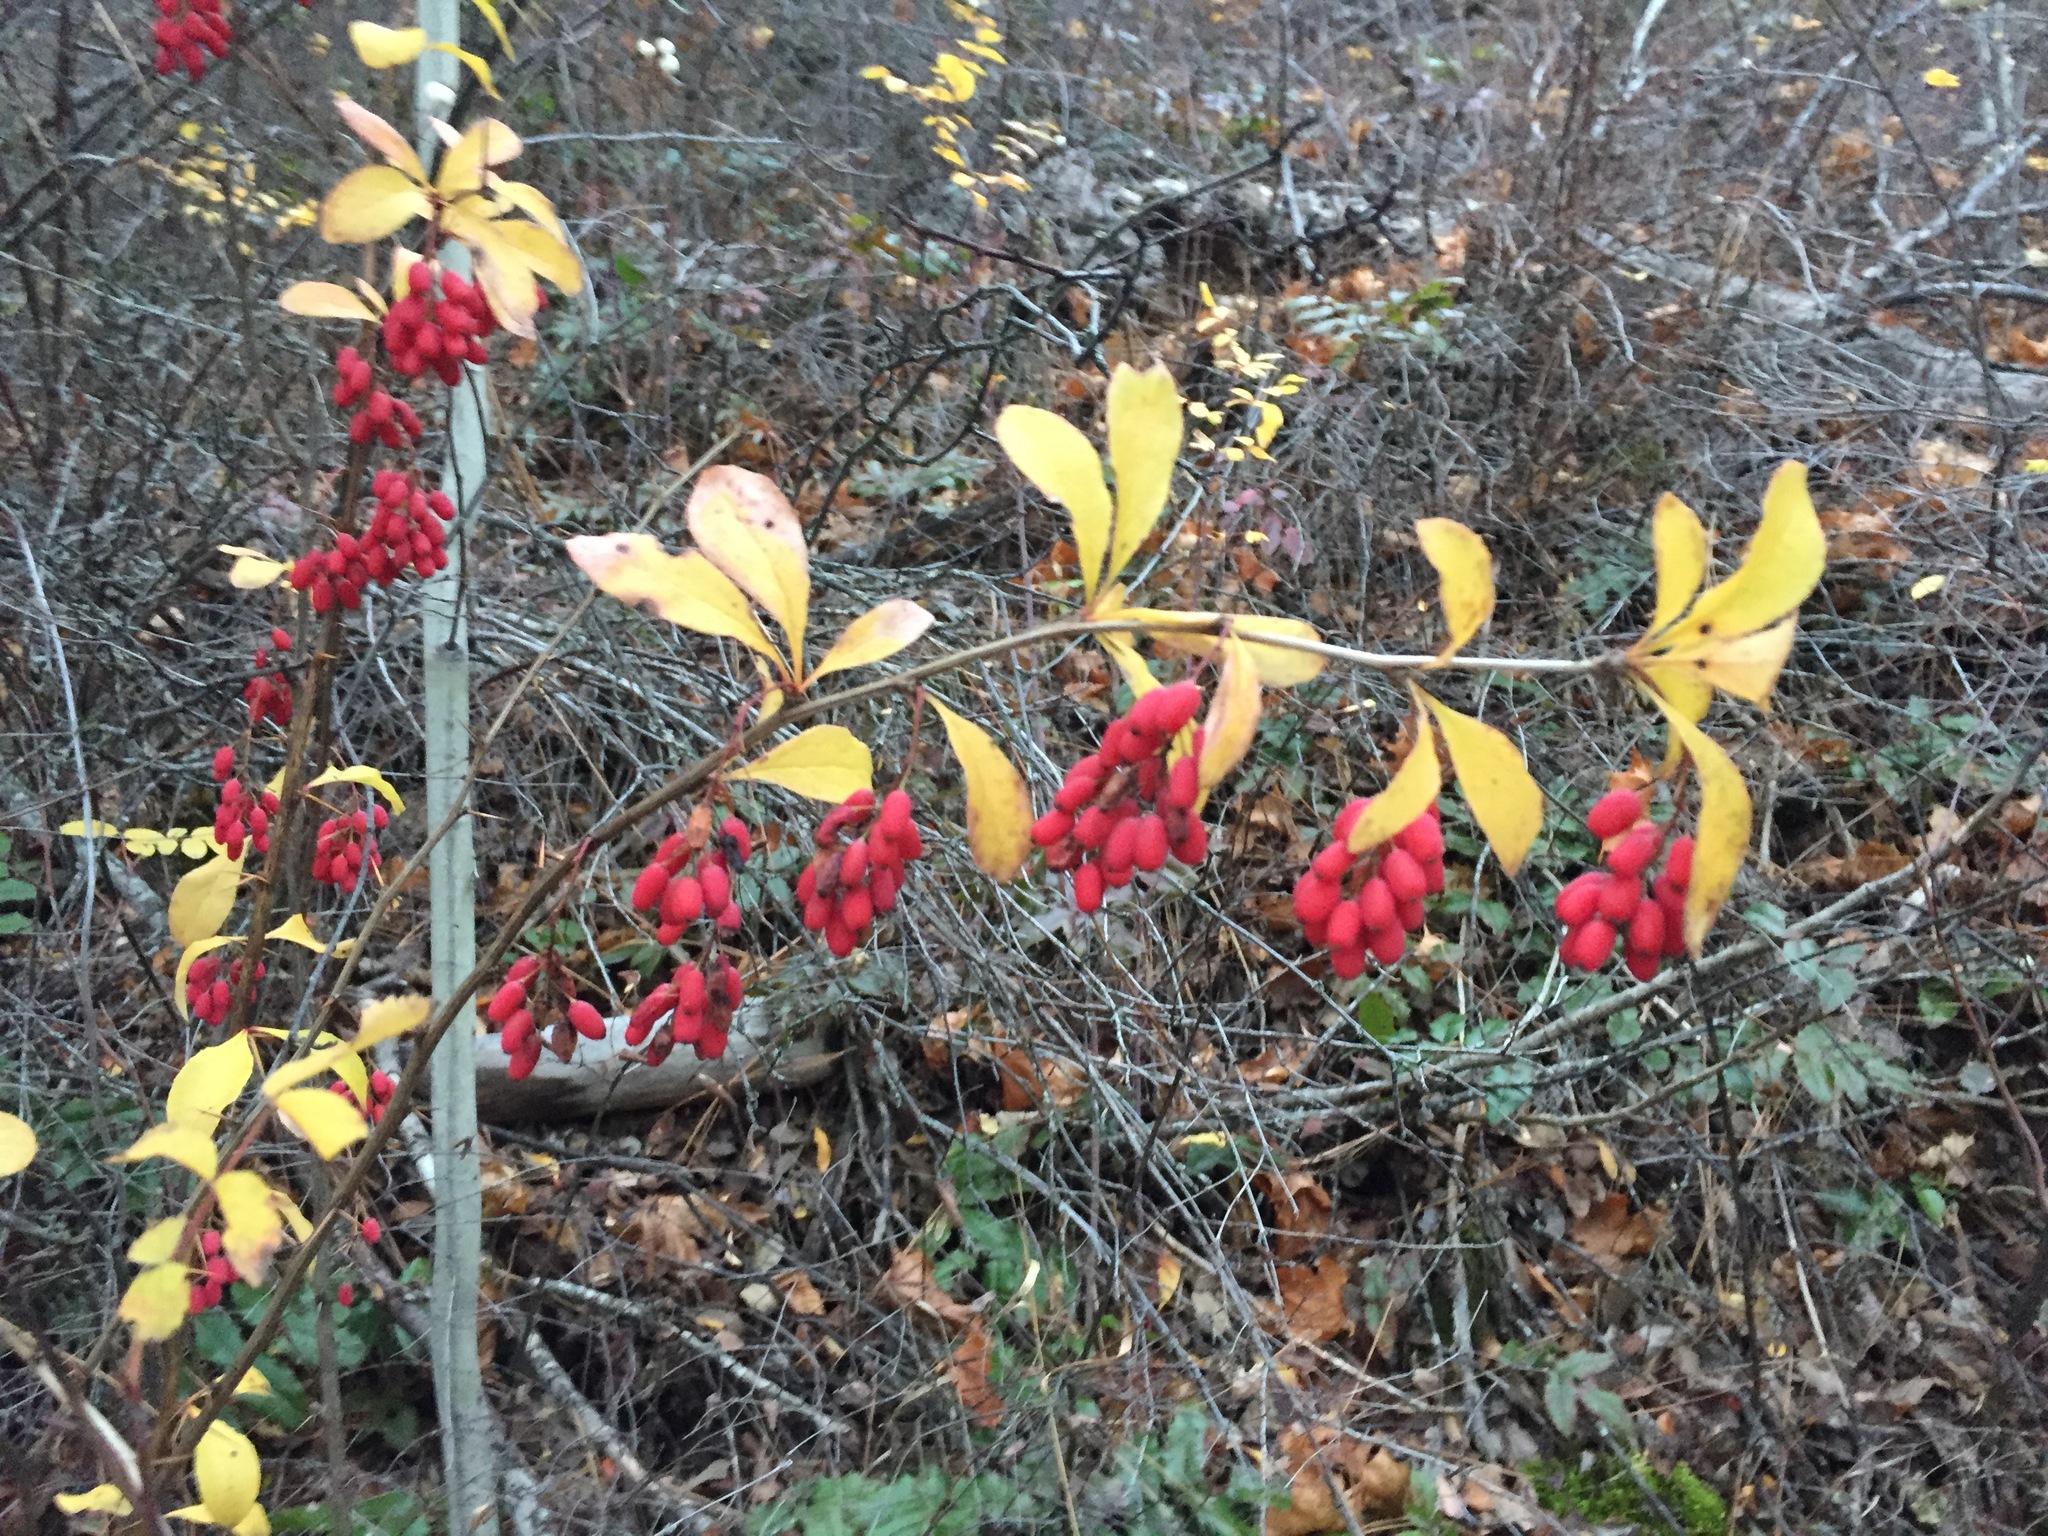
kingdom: Plantae
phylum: Tracheophyta
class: Magnoliopsida
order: Ranunculales
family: Berberidaceae
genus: Berberis
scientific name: Berberis vulgaris
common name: Barberry
